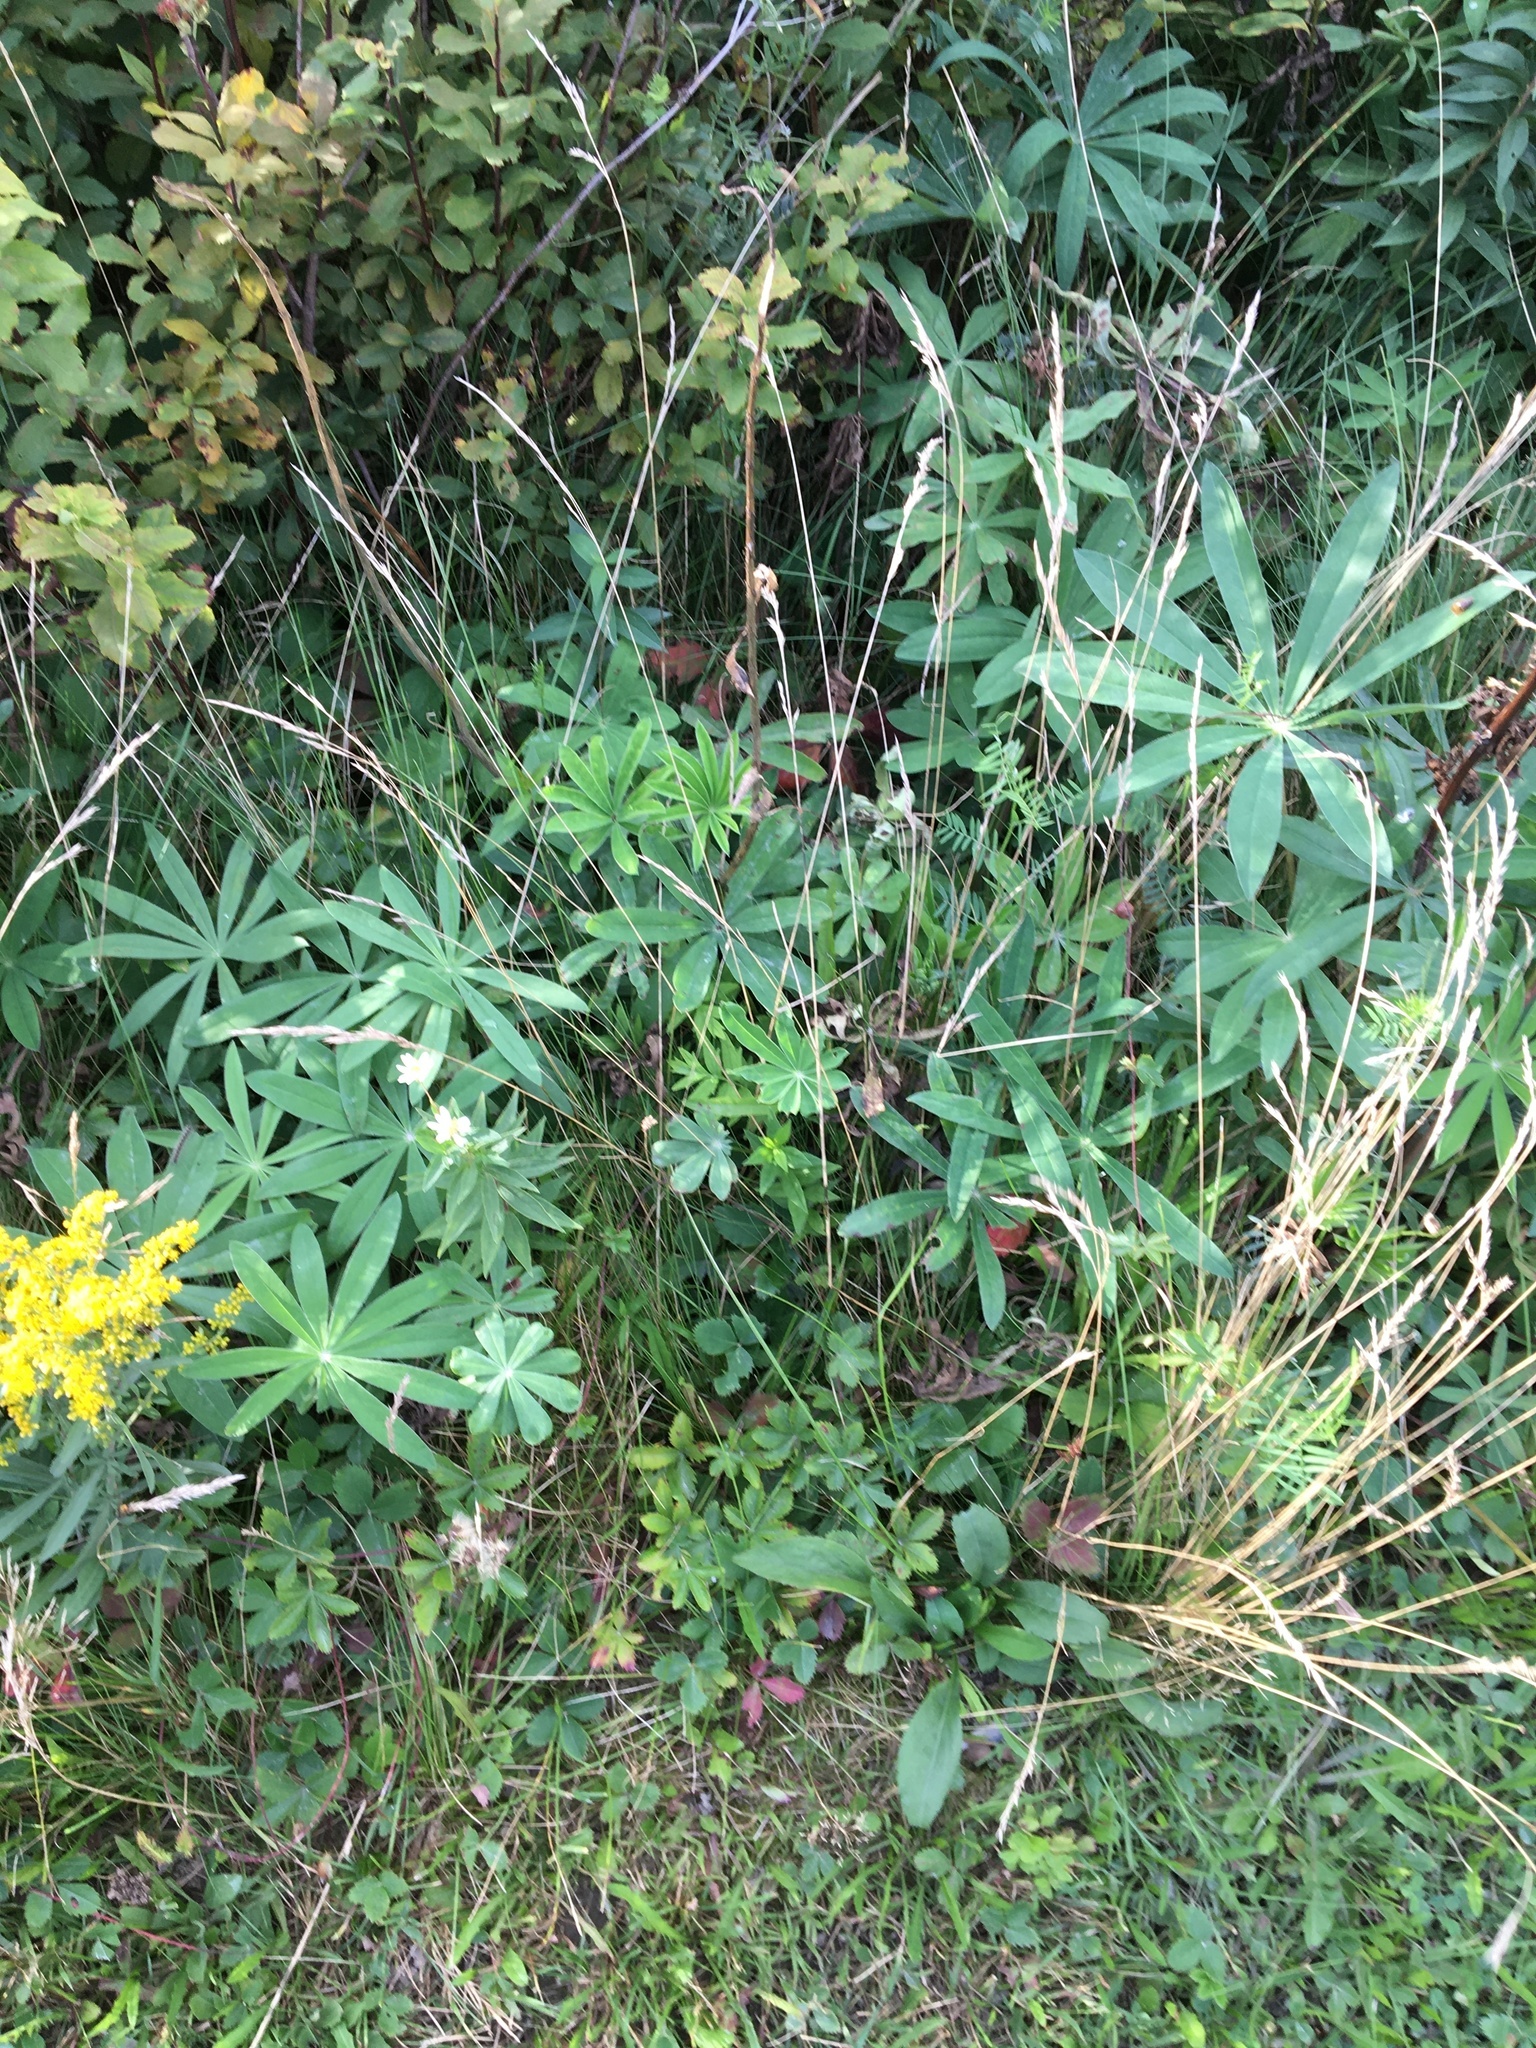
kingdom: Plantae
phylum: Tracheophyta
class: Magnoliopsida
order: Rosales
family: Rosaceae
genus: Spiraea
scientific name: Spiraea alba
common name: Pale bridewort
